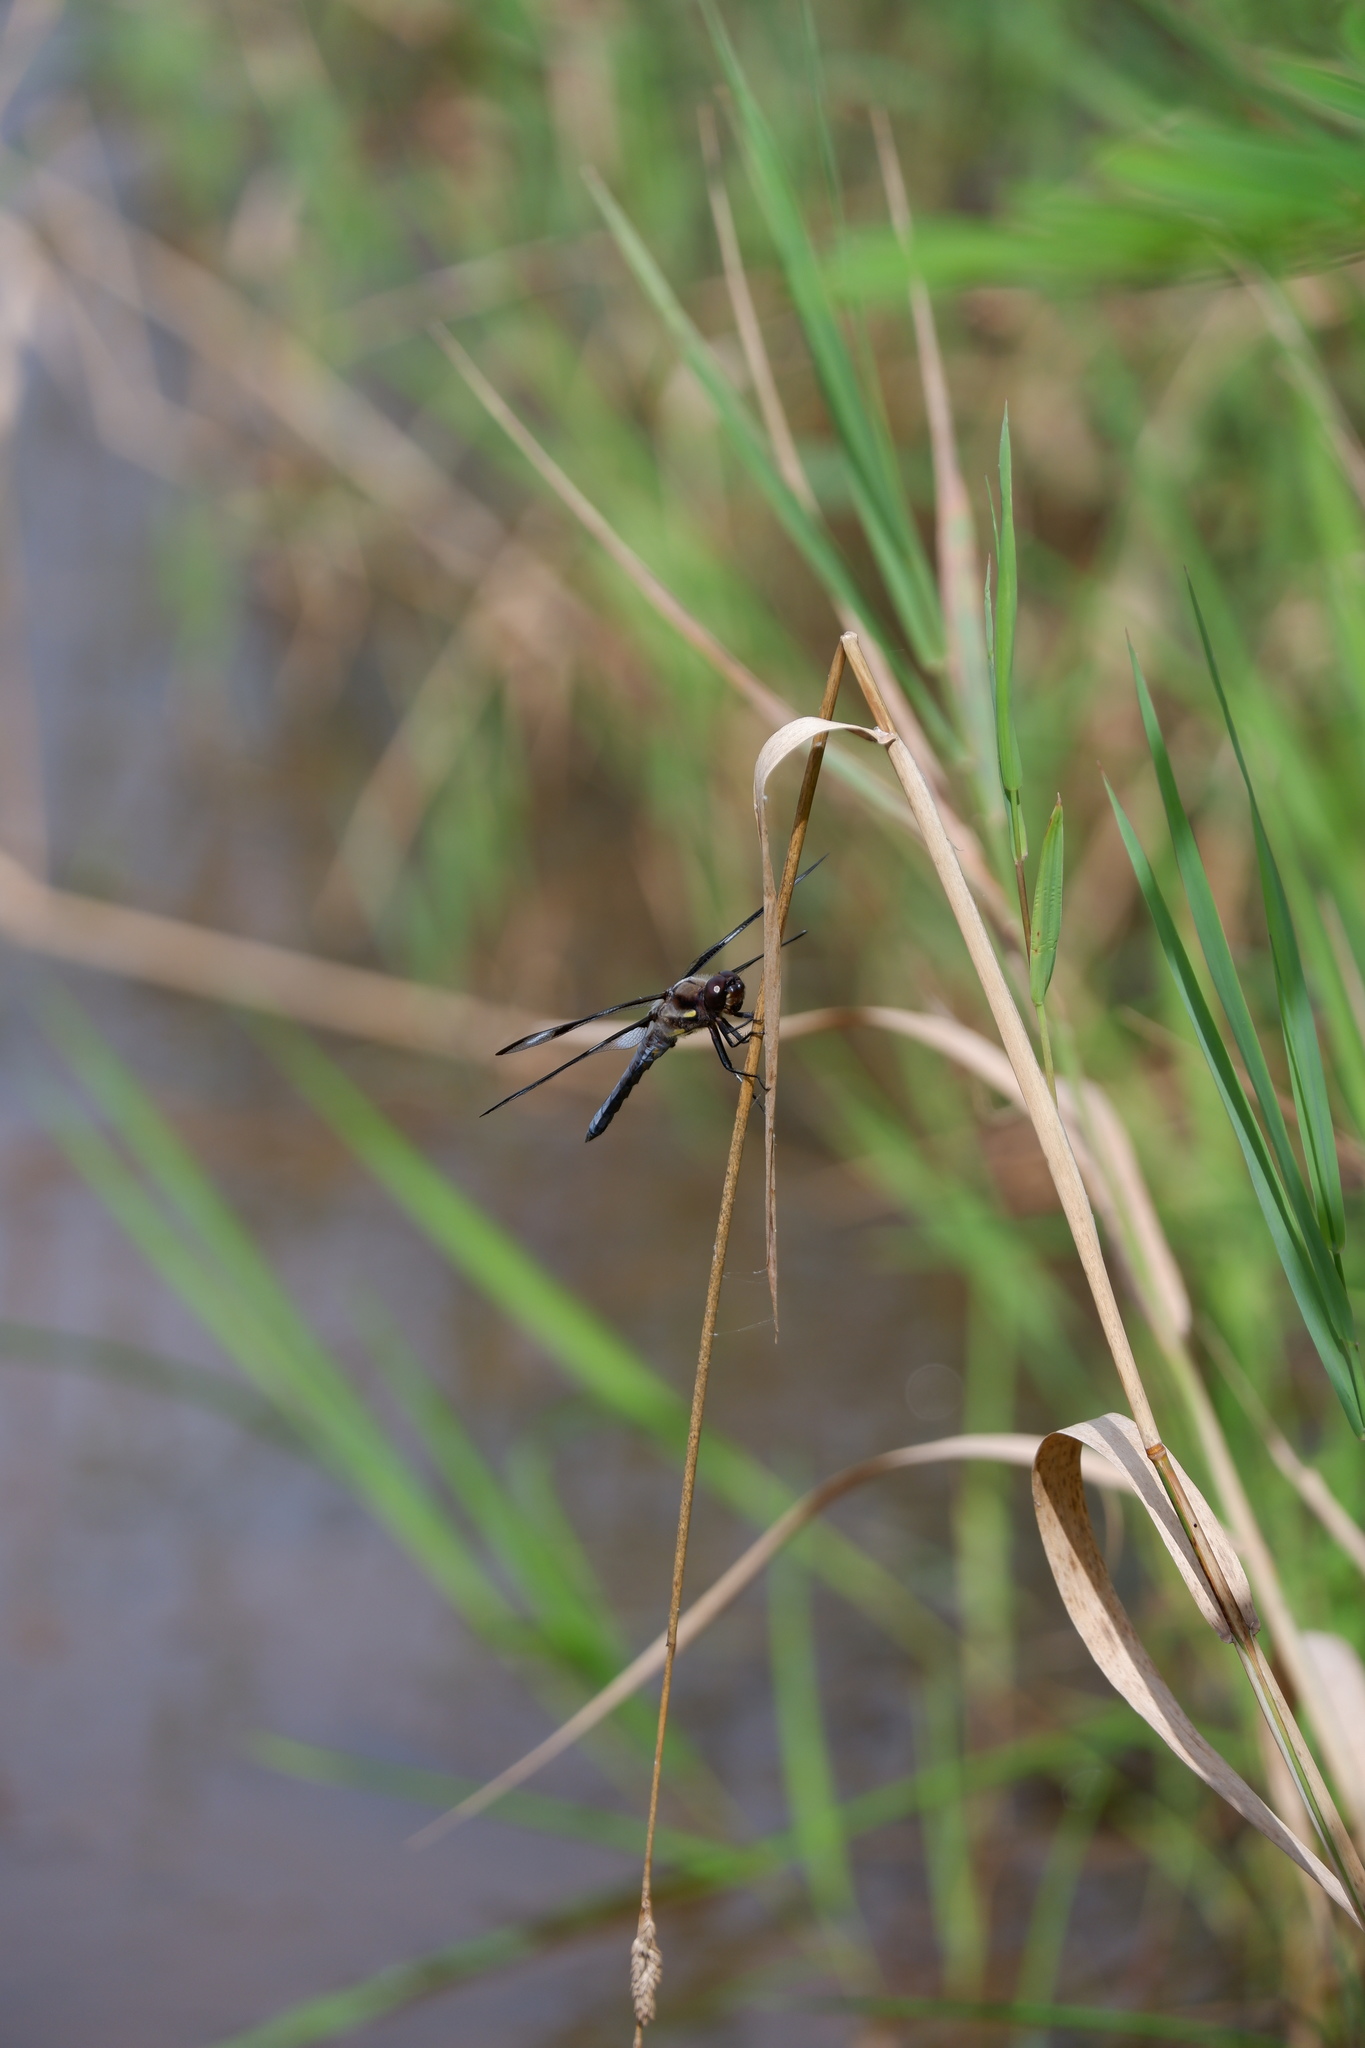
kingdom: Animalia
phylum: Arthropoda
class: Insecta
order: Odonata
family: Libellulidae
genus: Libellula
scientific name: Libellula pulchella
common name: Twelve-spotted skimmer
